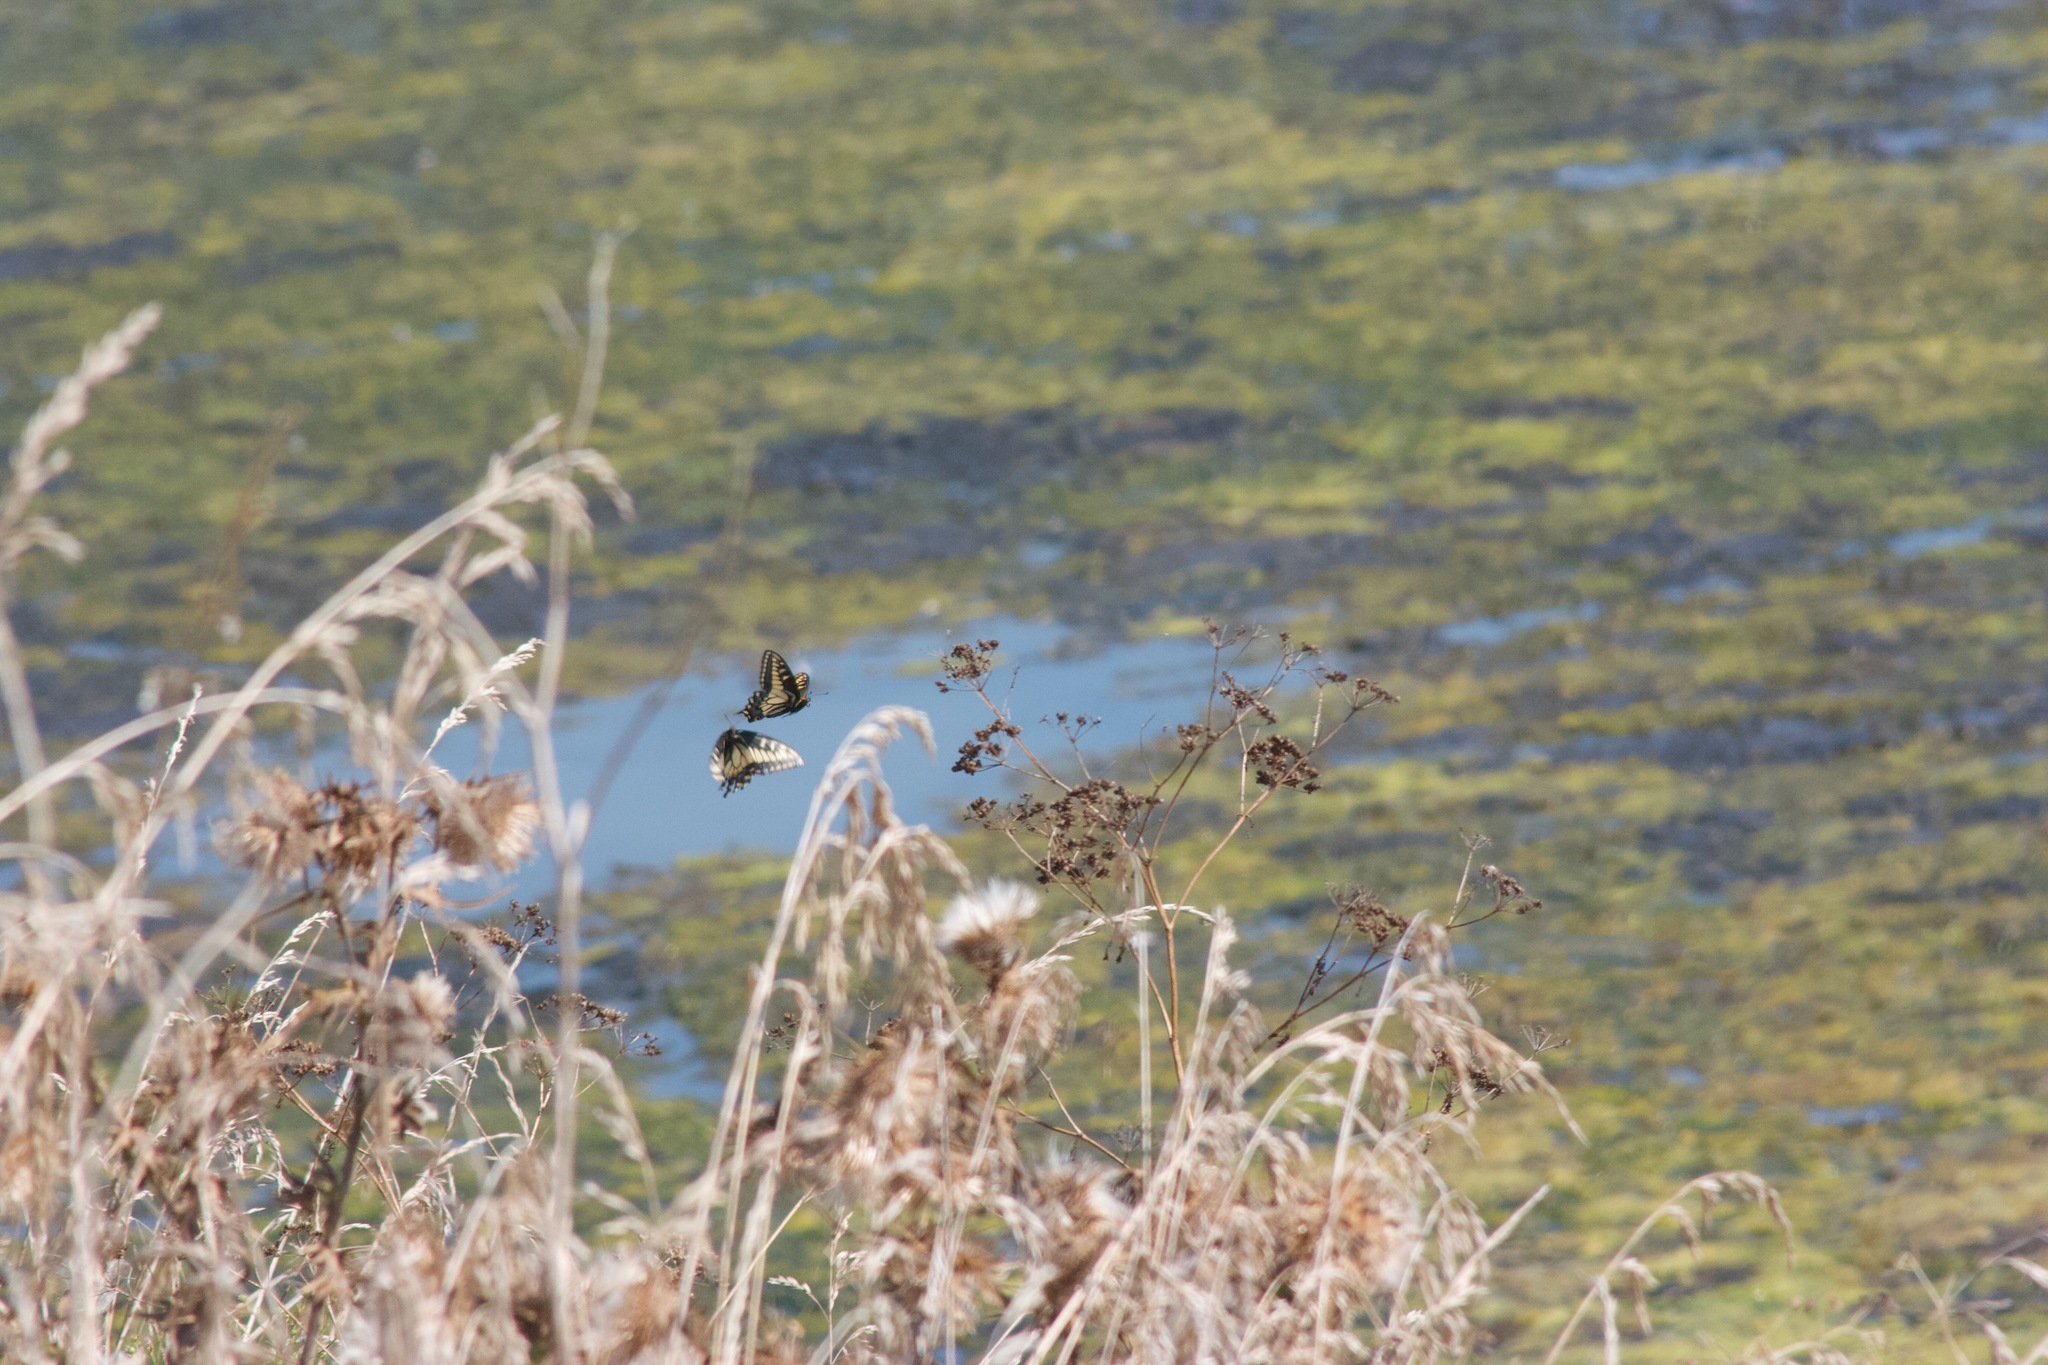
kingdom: Animalia
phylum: Arthropoda
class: Insecta
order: Lepidoptera
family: Papilionidae
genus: Papilio
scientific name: Papilio zelicaon
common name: Anise swallowtail
